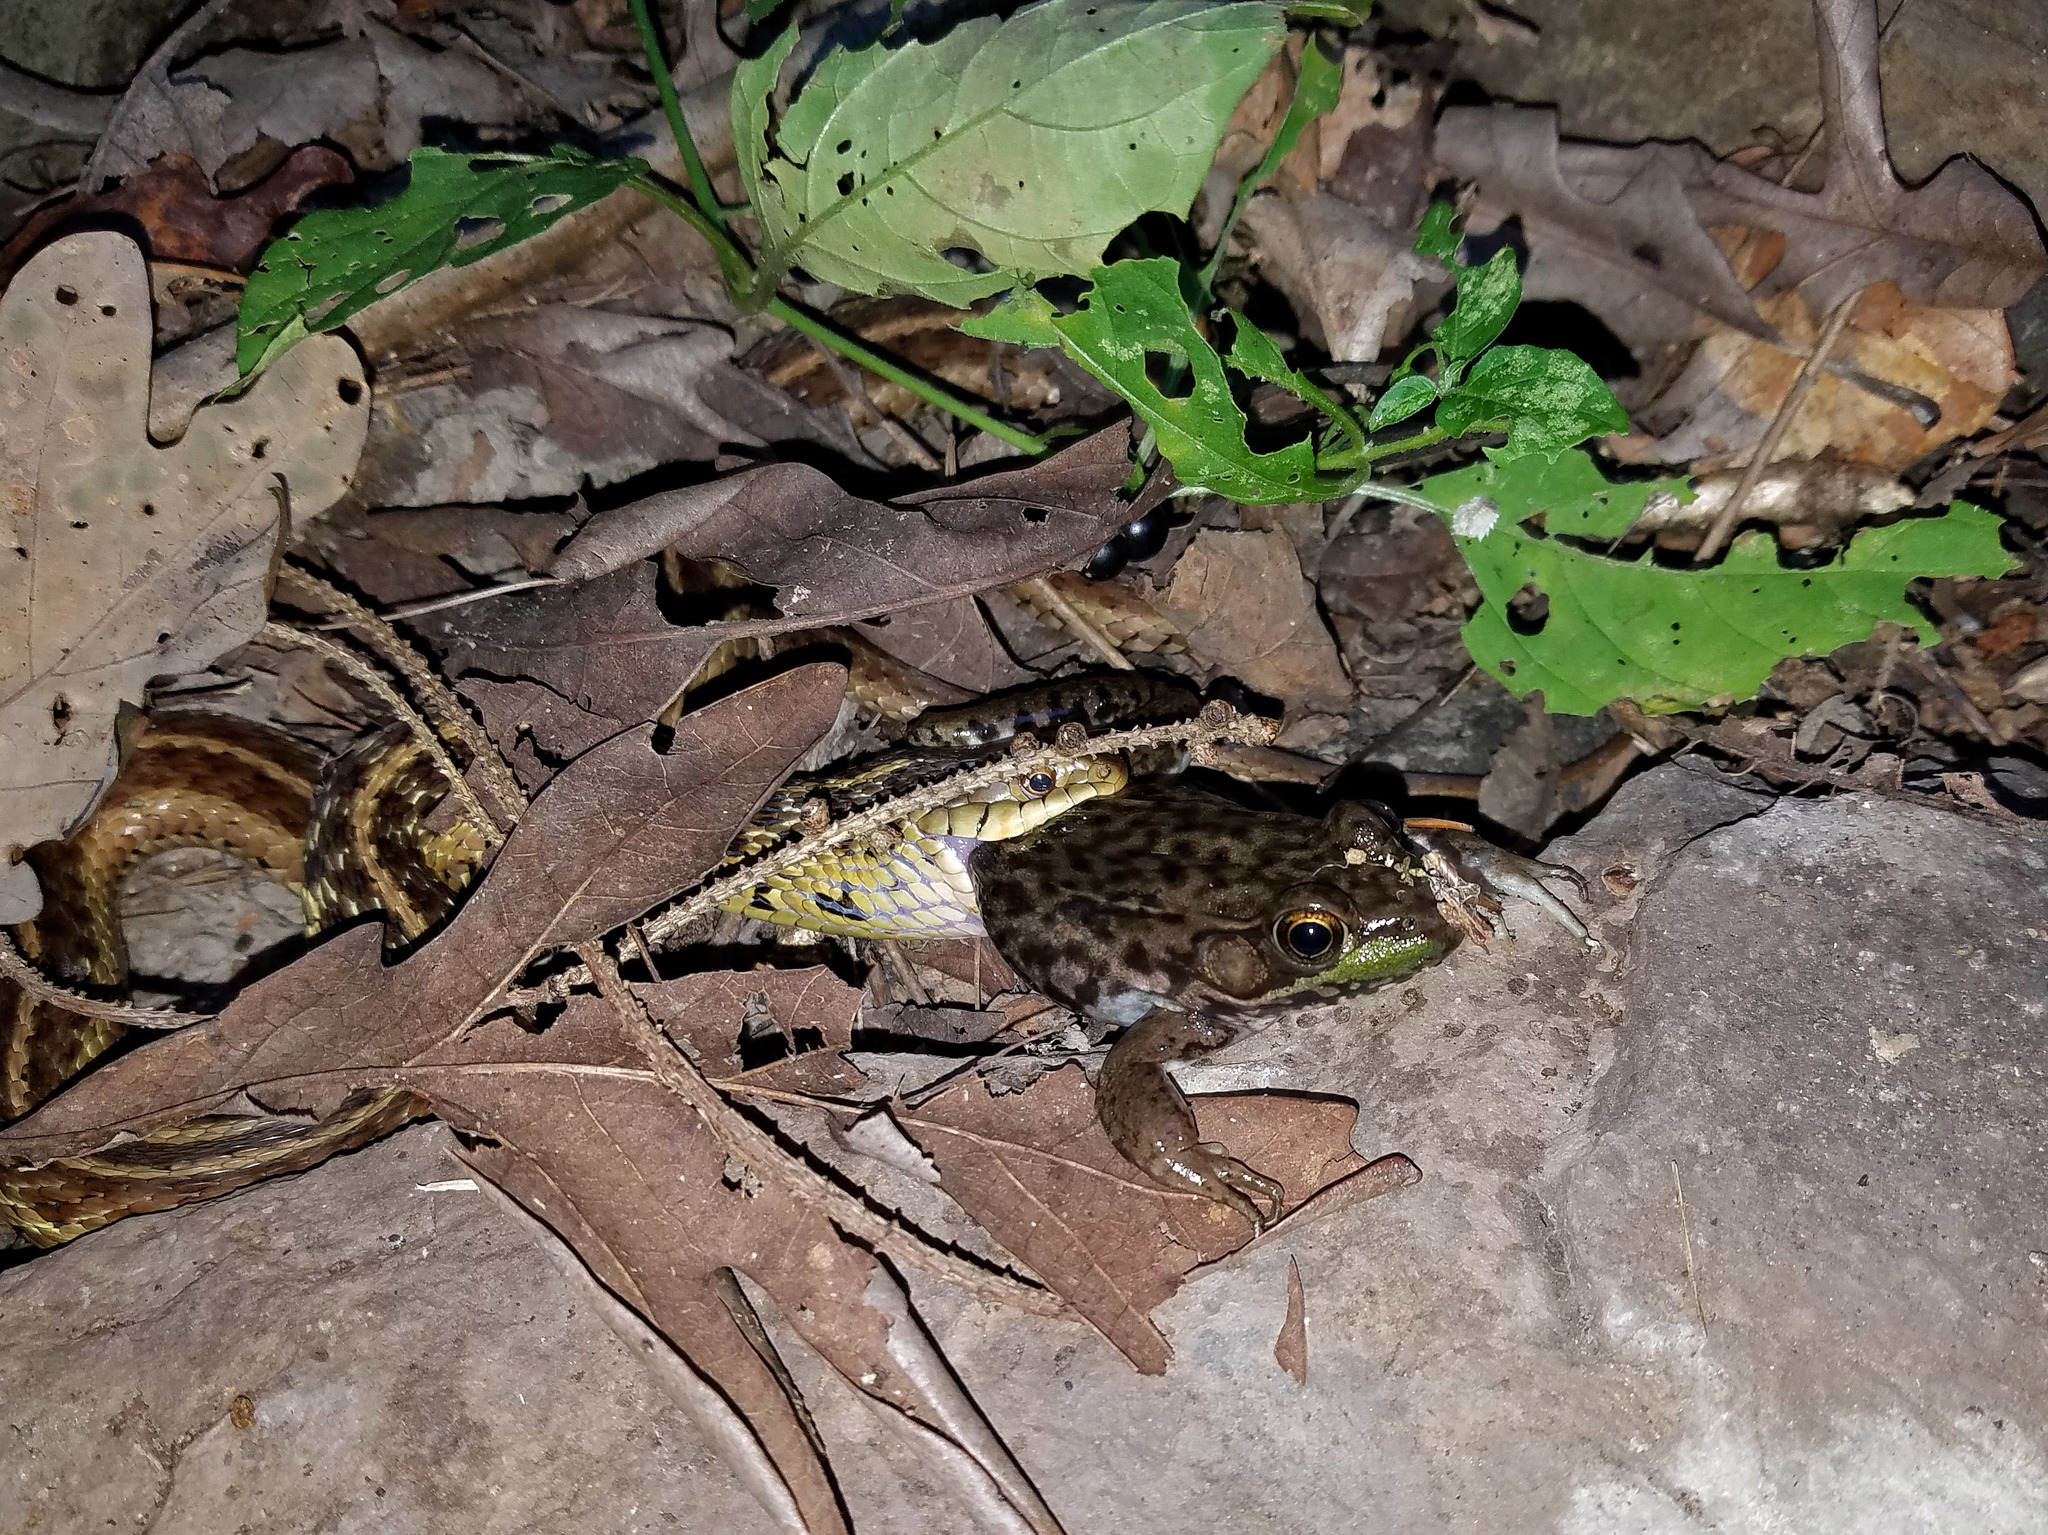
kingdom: Animalia
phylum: Chordata
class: Amphibia
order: Anura
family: Ranidae
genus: Lithobates
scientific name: Lithobates clamitans
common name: Green frog
